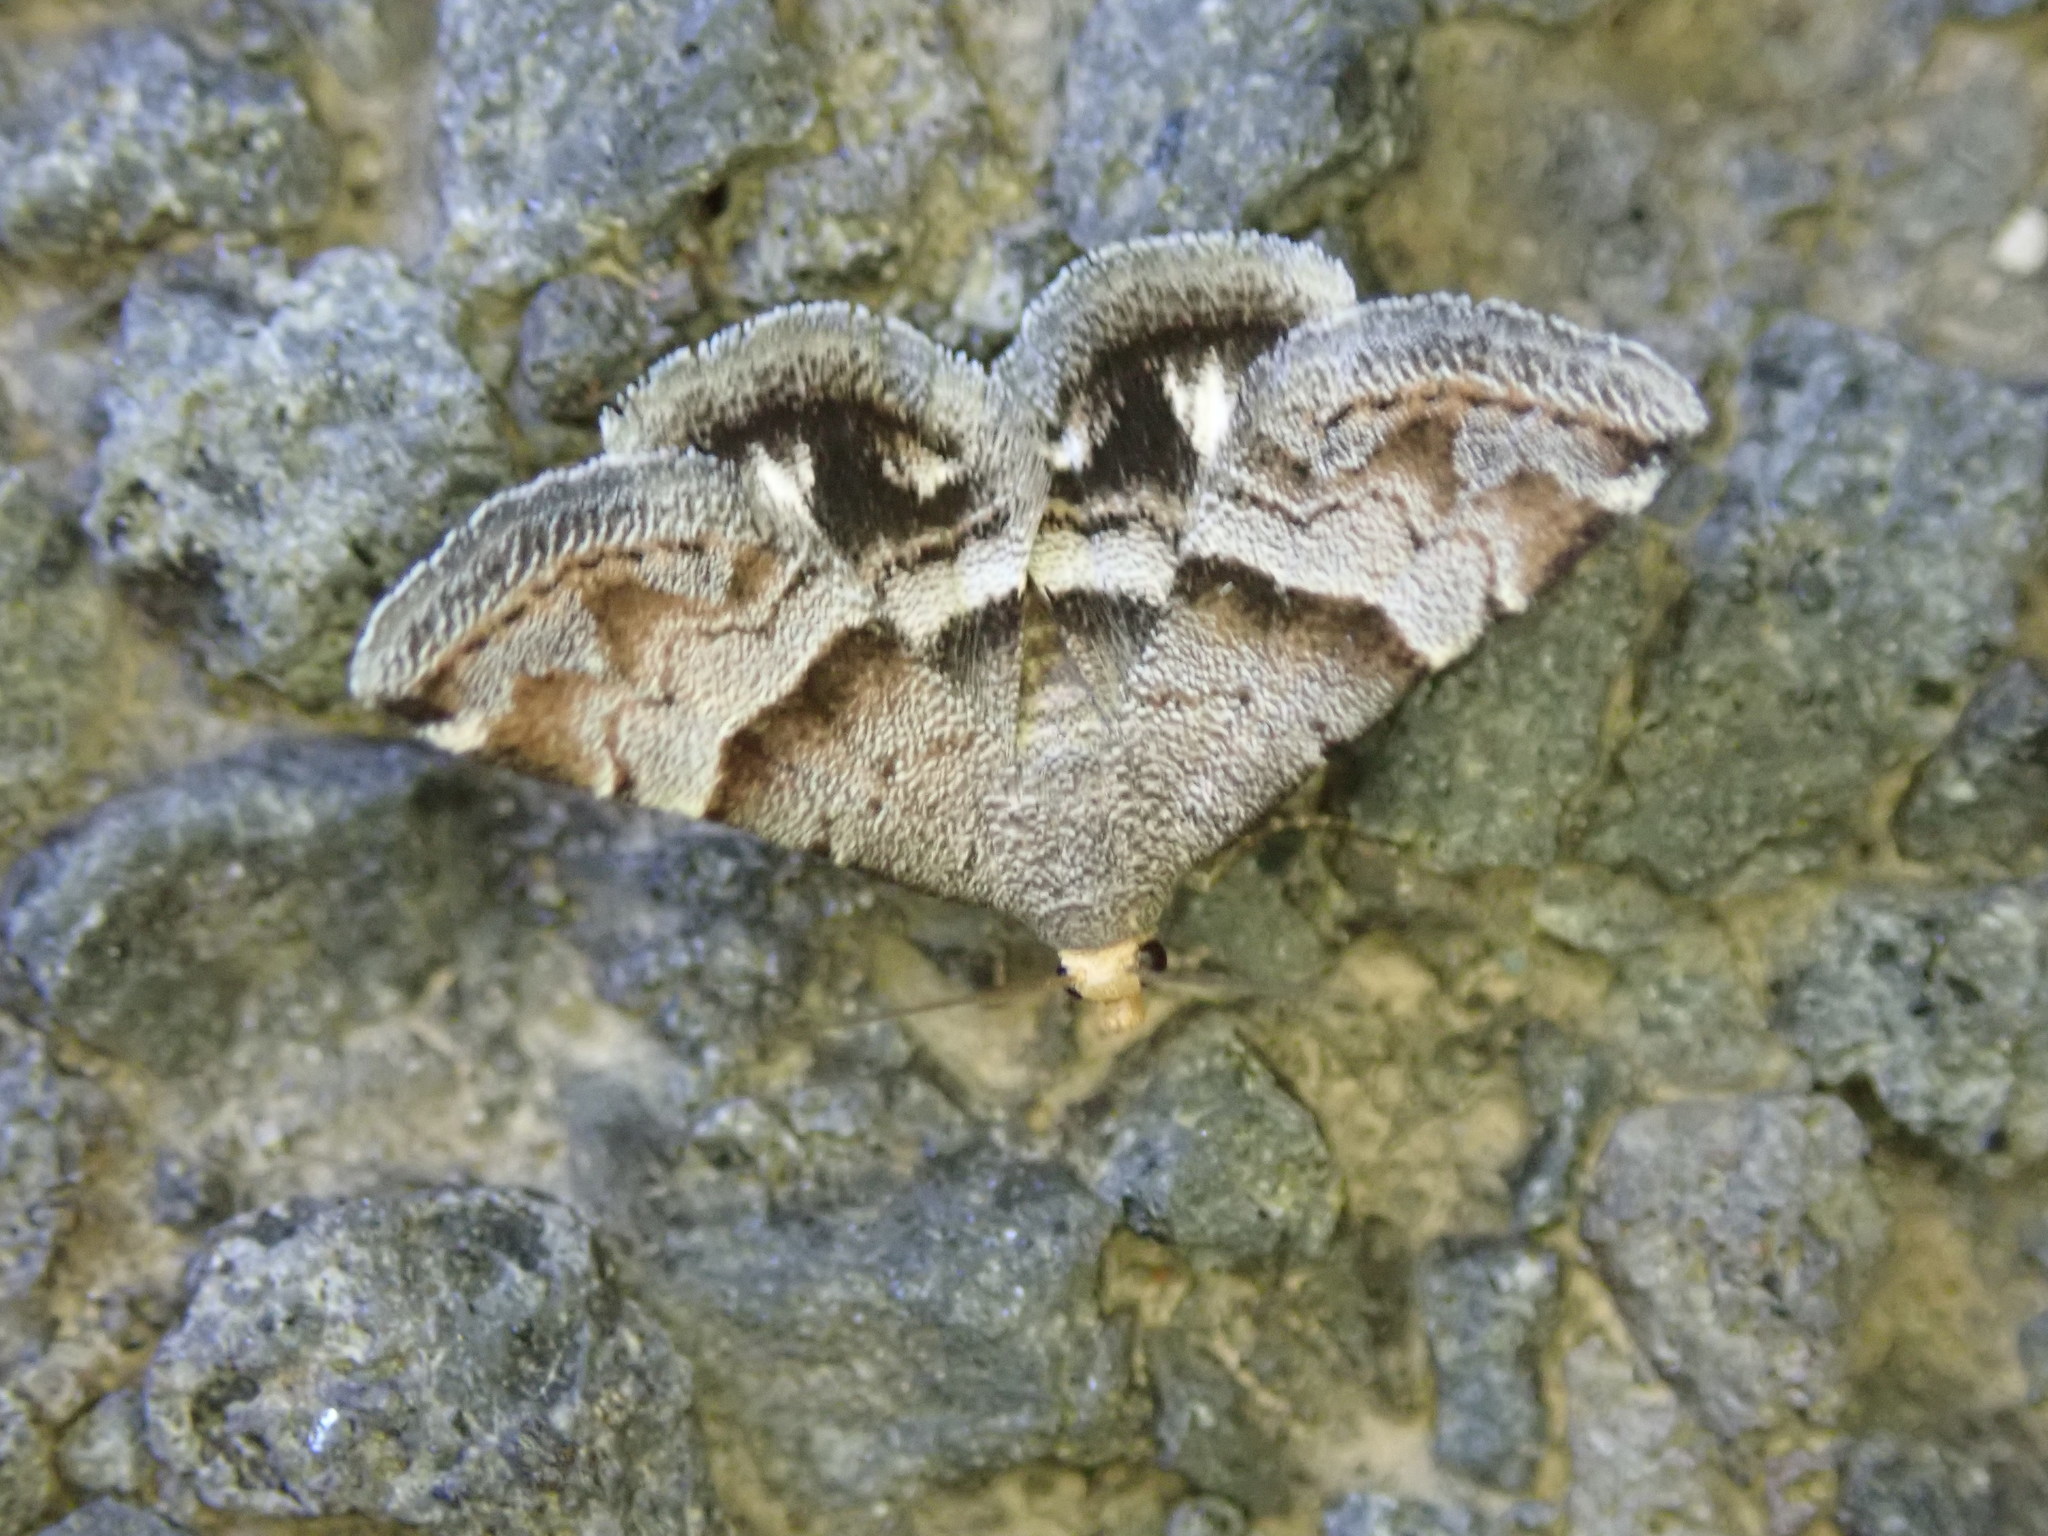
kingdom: Animalia
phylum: Arthropoda
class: Insecta
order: Lepidoptera
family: Noctuidae
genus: Odice
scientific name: Odice jucunda
